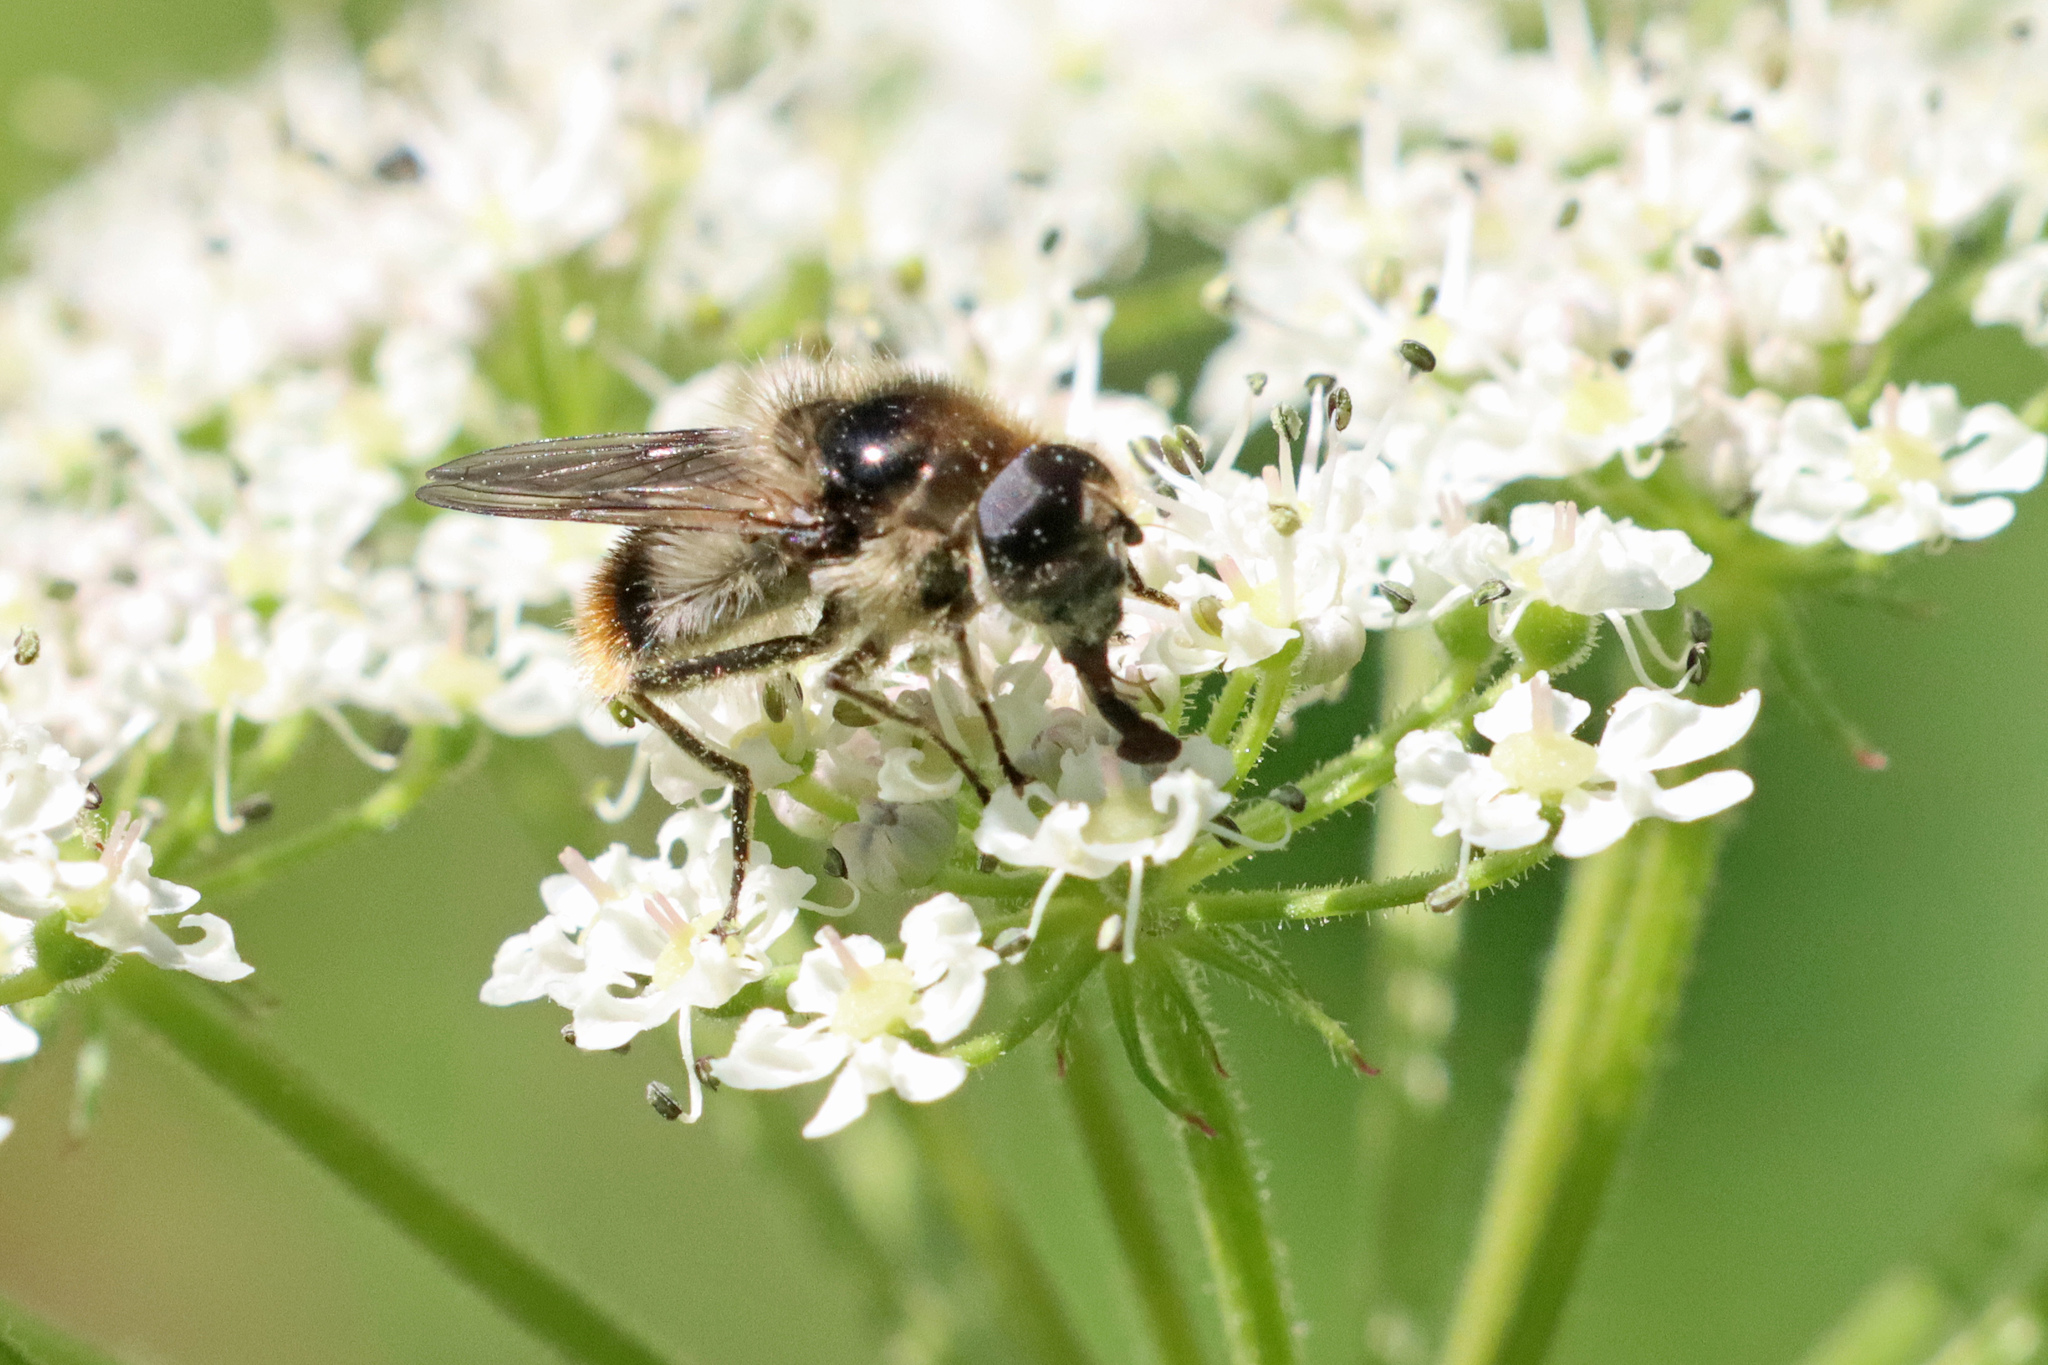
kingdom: Animalia
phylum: Arthropoda
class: Insecta
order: Diptera
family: Syrphidae
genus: Cheilosia
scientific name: Cheilosia illustrata
